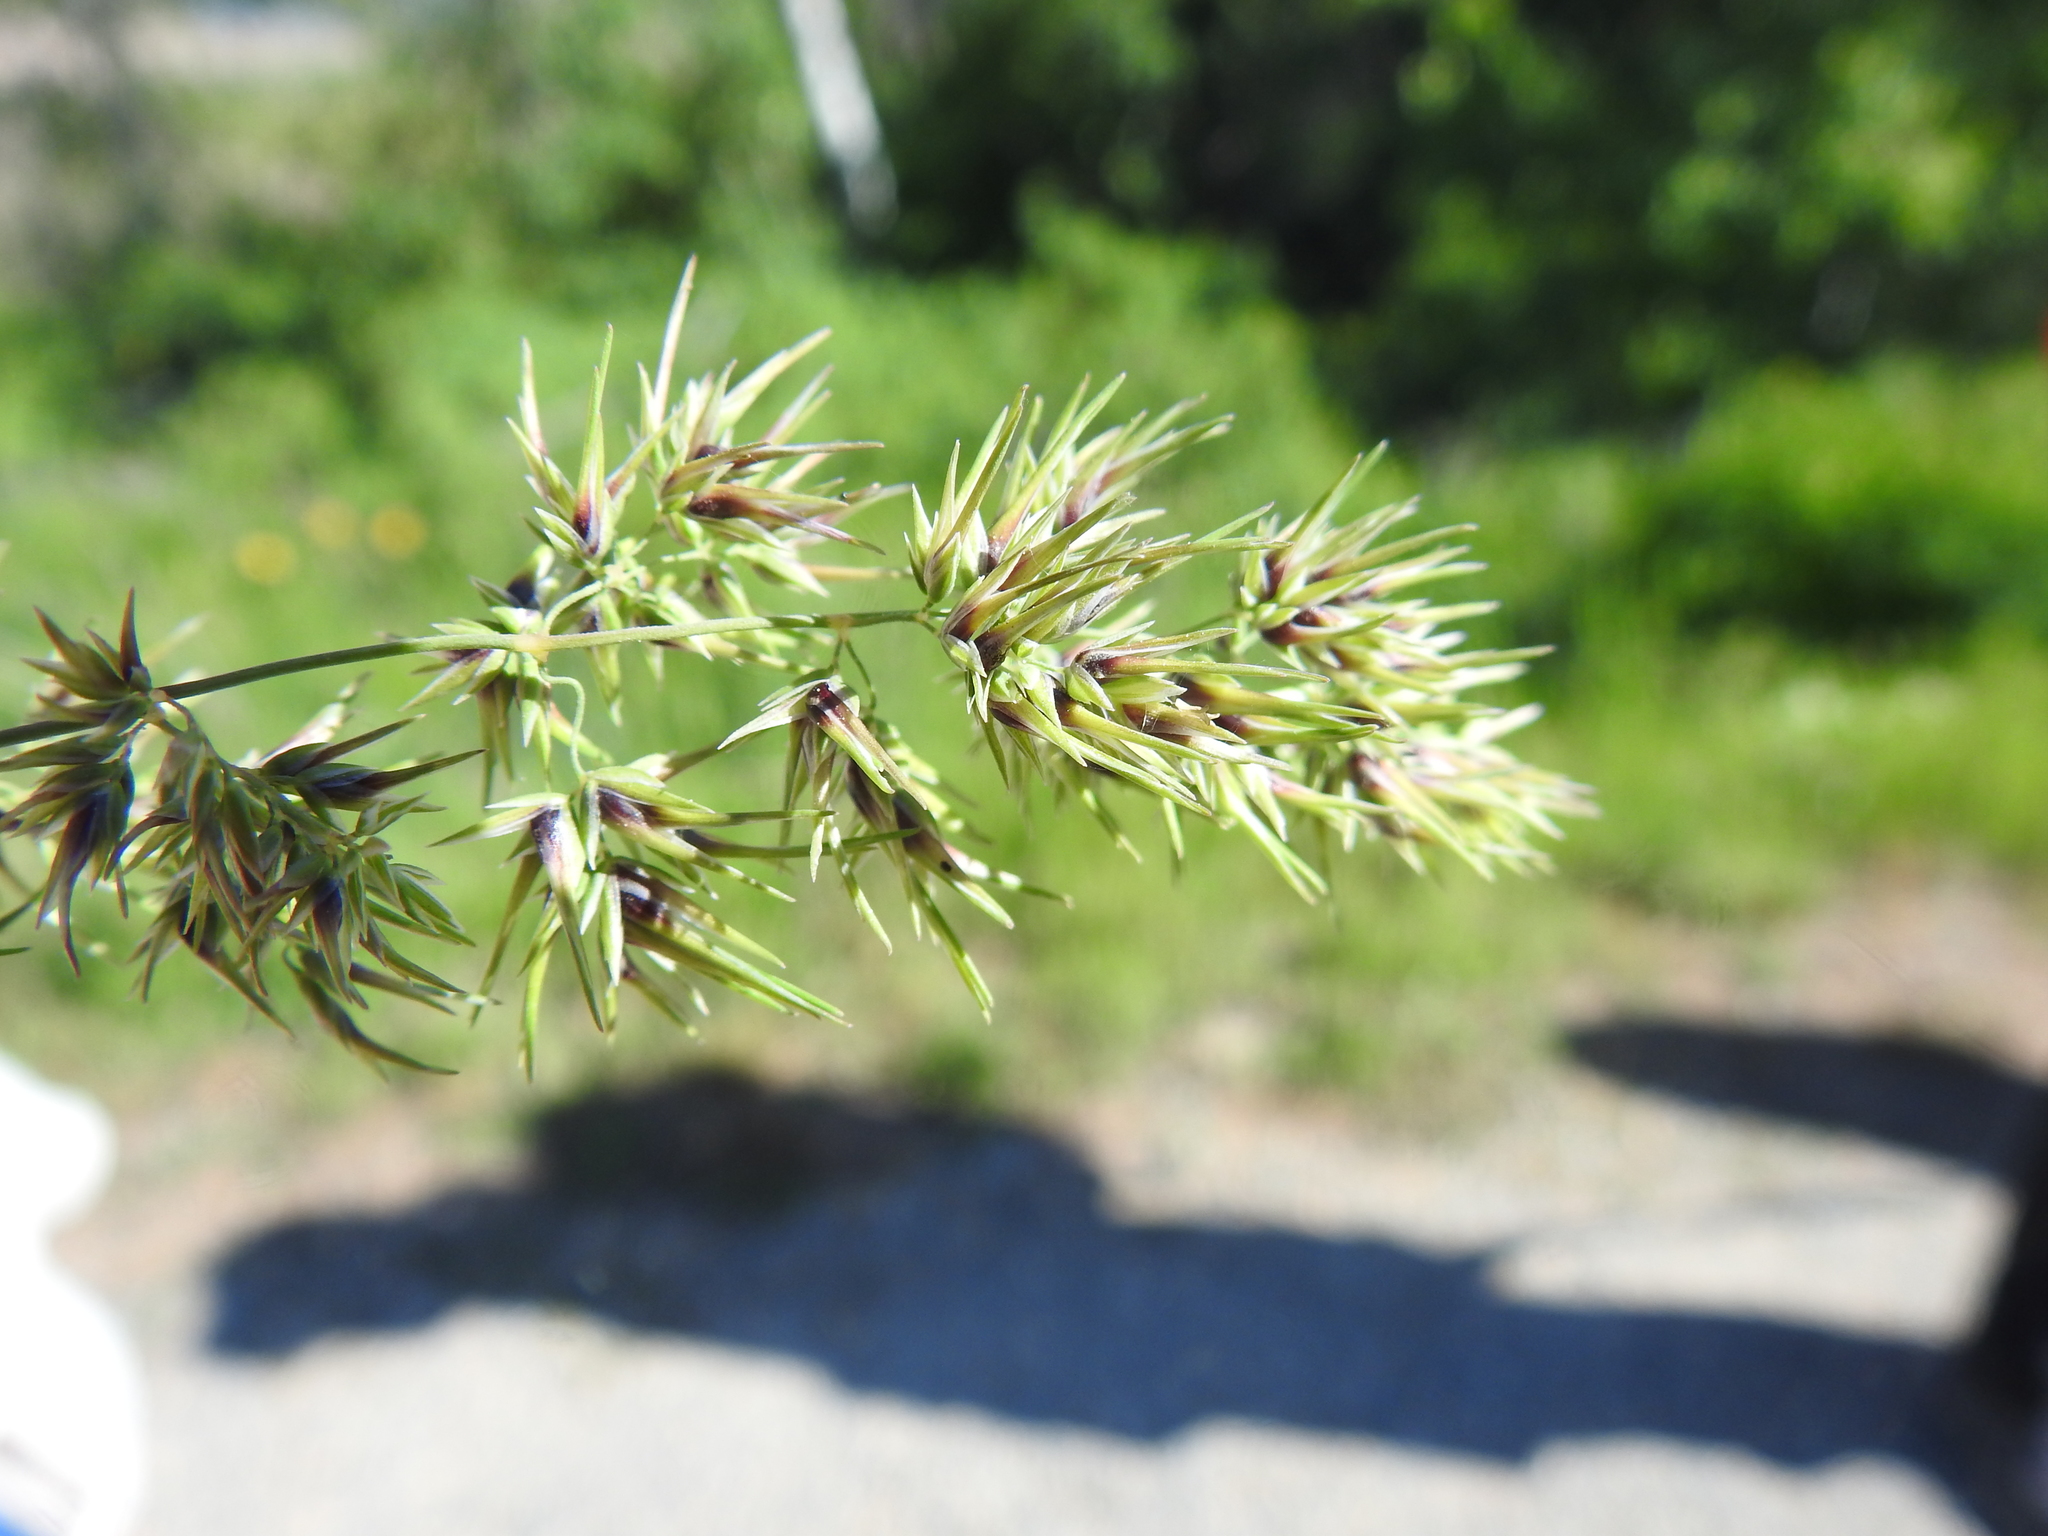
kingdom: Plantae
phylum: Tracheophyta
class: Liliopsida
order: Poales
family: Poaceae
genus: Poa
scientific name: Poa bulbosa
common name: Bulbous bluegrass
